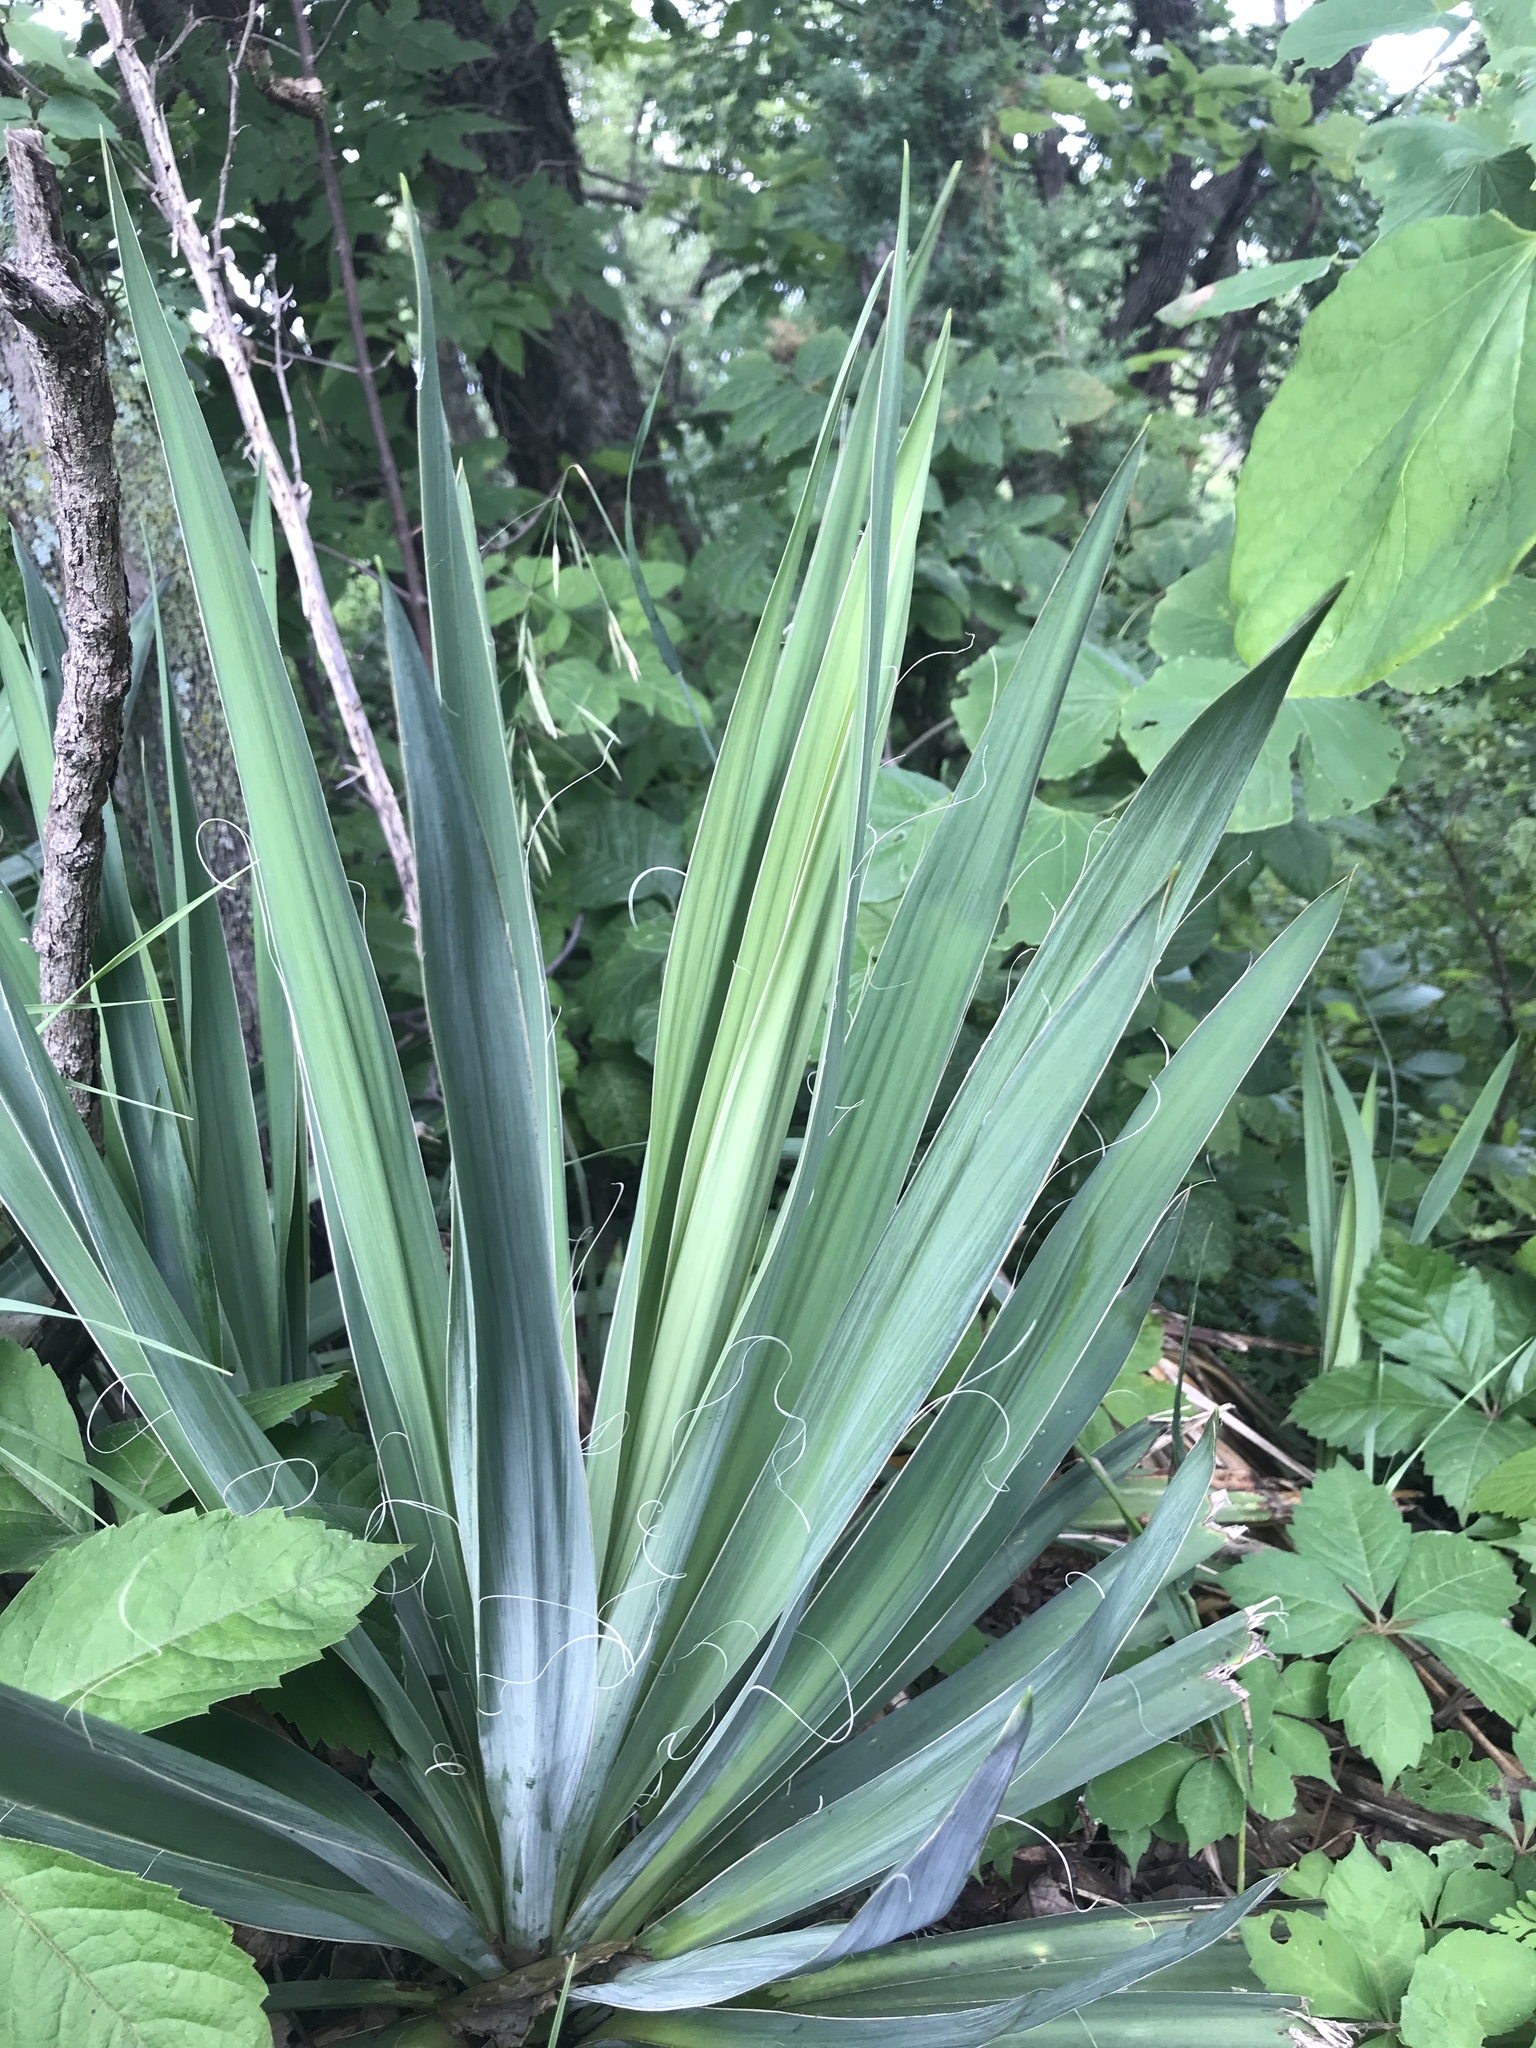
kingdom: Plantae
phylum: Tracheophyta
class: Liliopsida
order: Asparagales
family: Asparagaceae
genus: Yucca
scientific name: Yucca flaccida
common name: Adam's-needle
